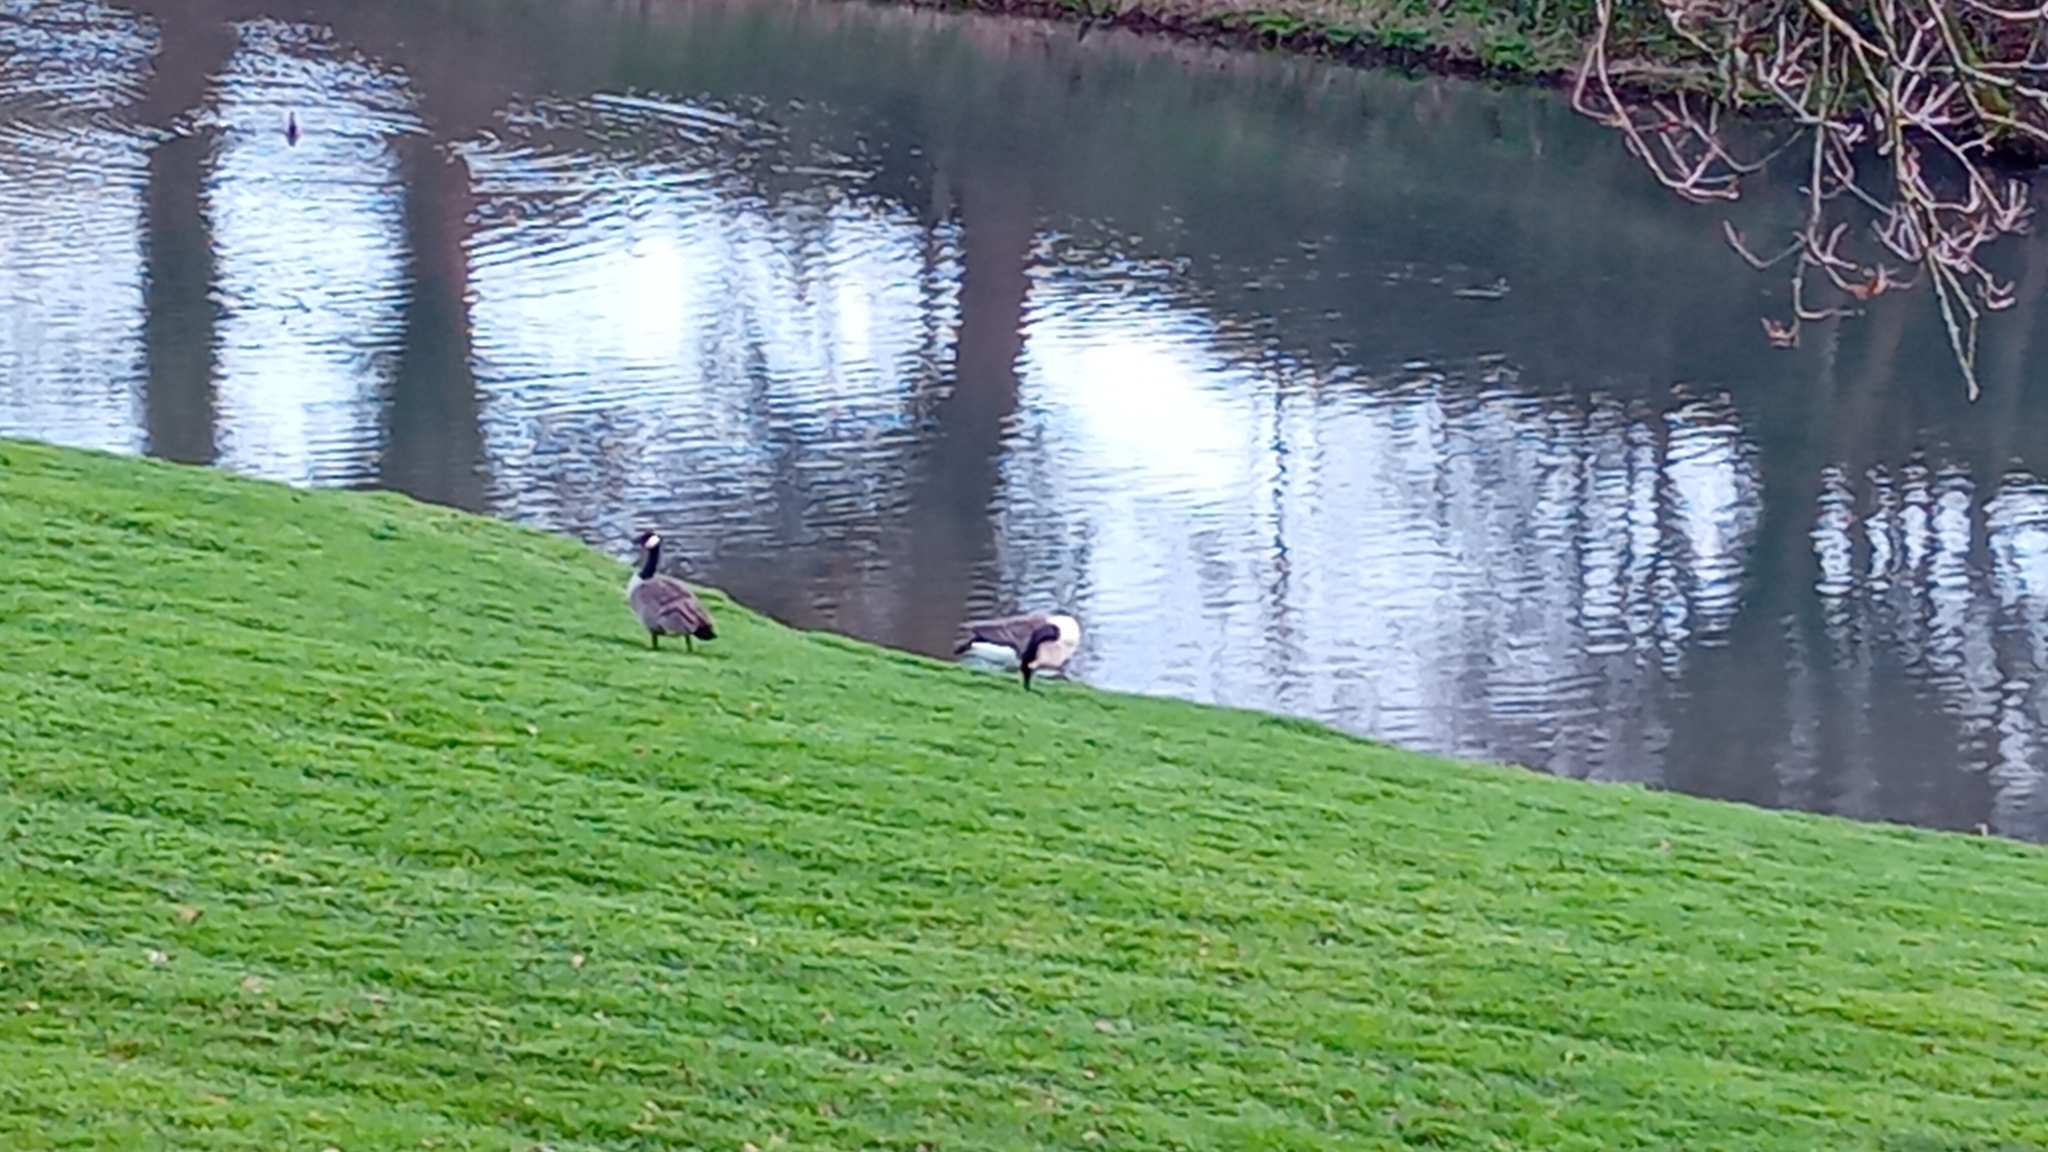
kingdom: Animalia
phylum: Chordata
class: Aves
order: Anseriformes
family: Anatidae
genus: Branta
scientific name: Branta canadensis
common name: Canada goose
